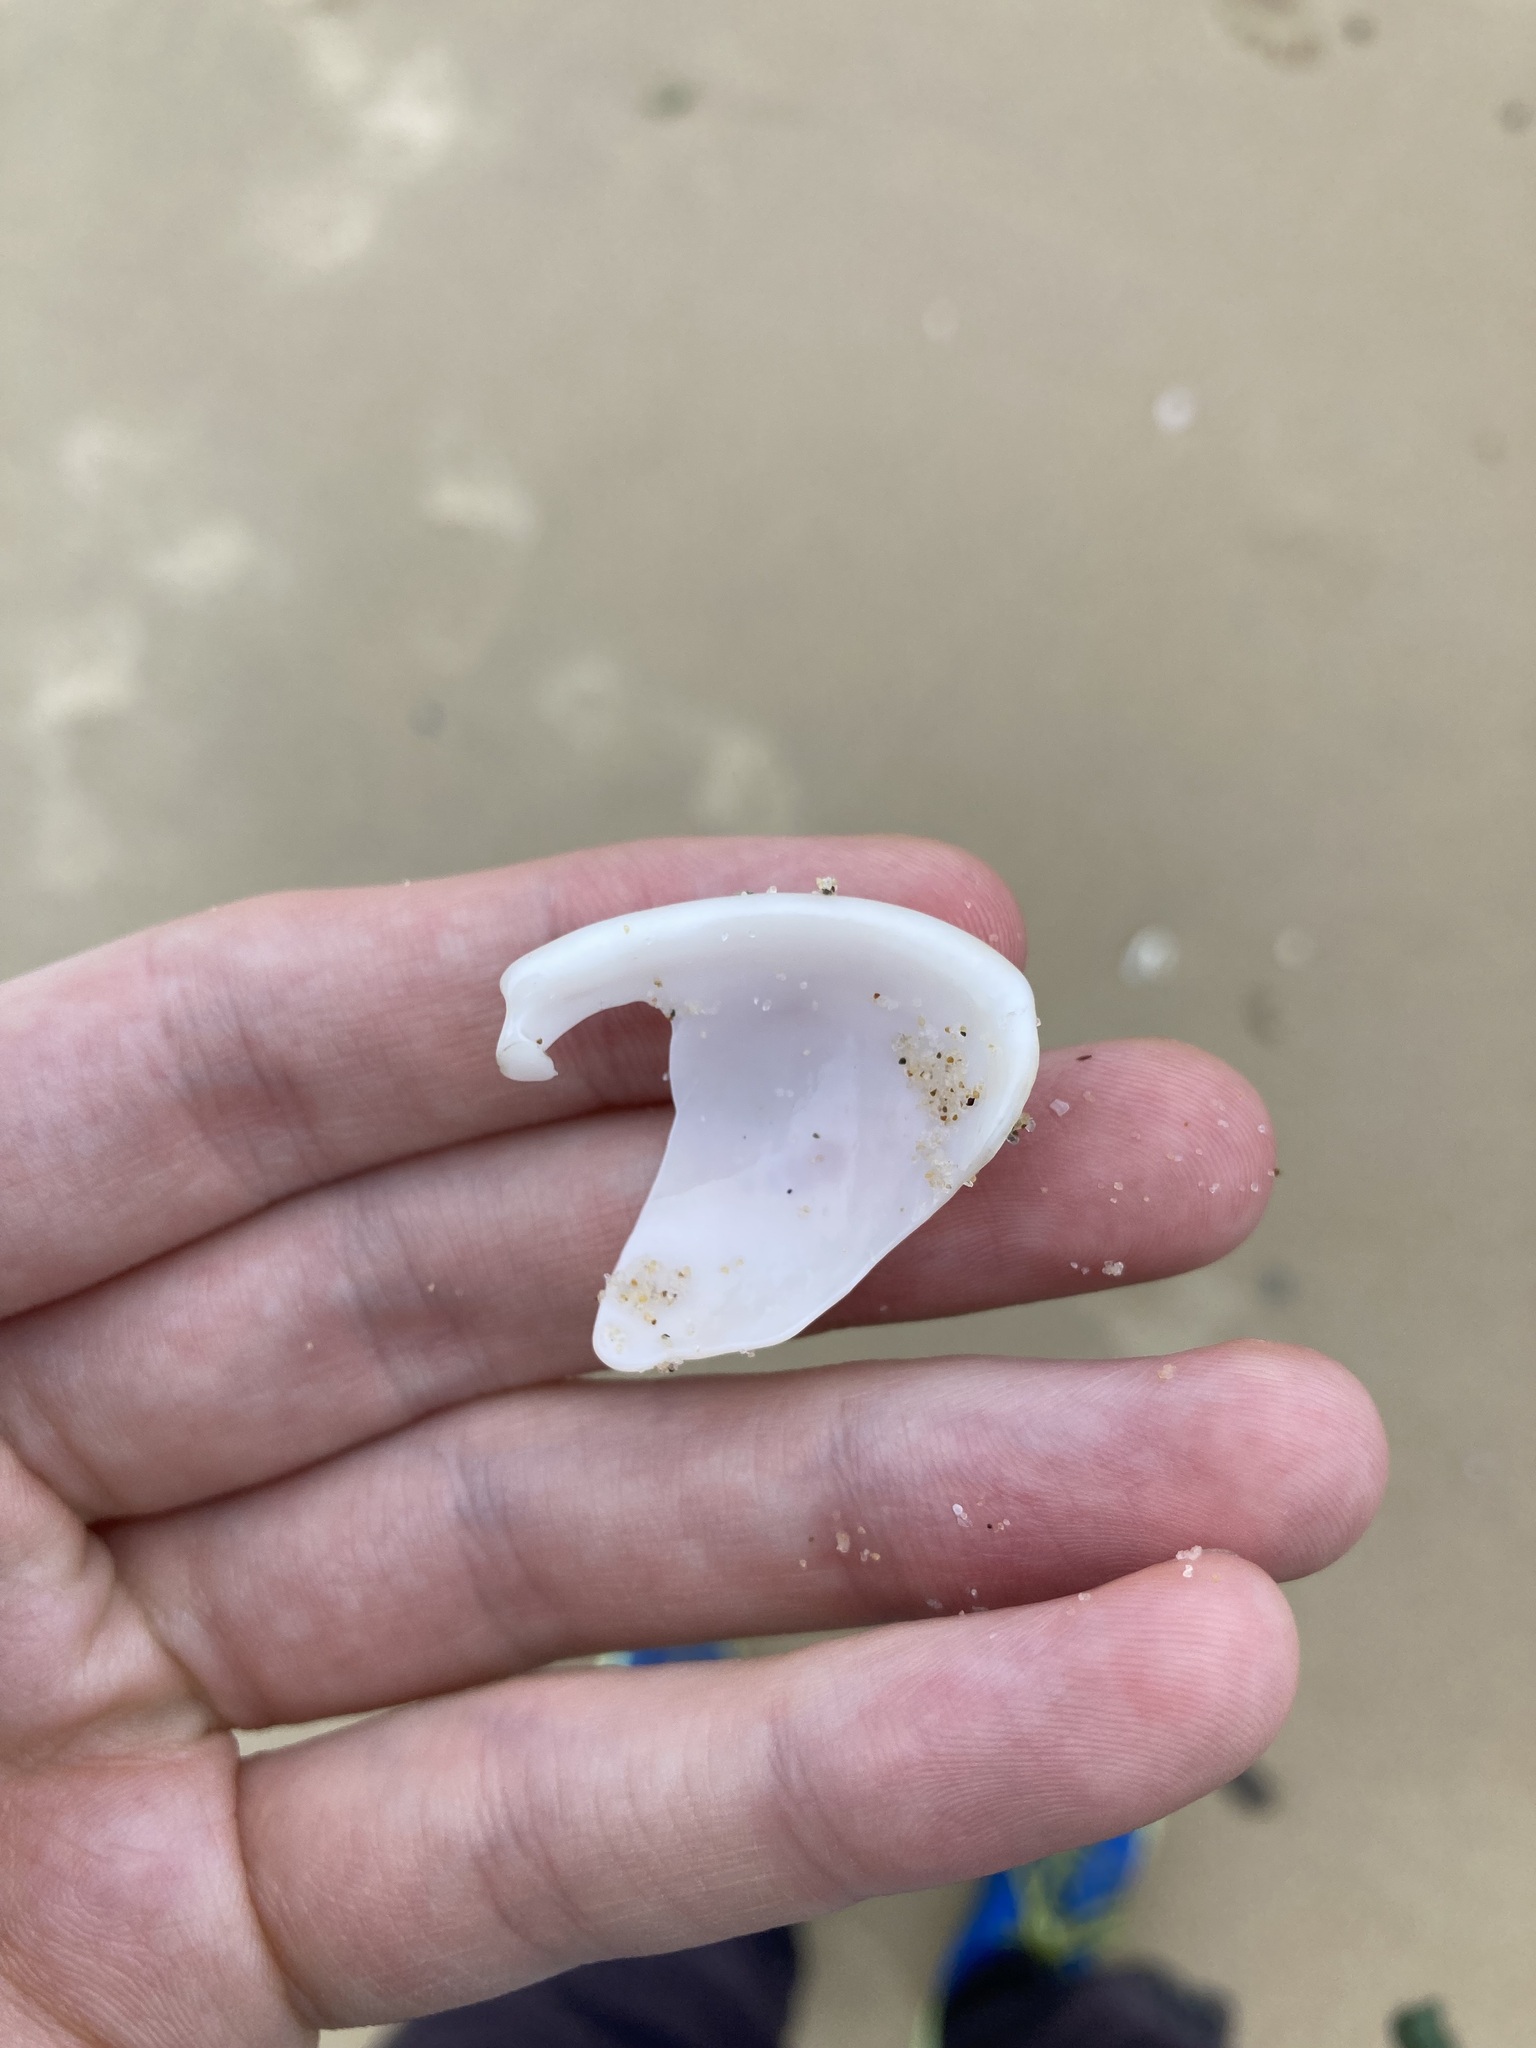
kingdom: Animalia
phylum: Mollusca
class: Gastropoda
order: Littorinimorpha
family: Cassidae
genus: Semicassis
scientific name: Semicassis labiata
